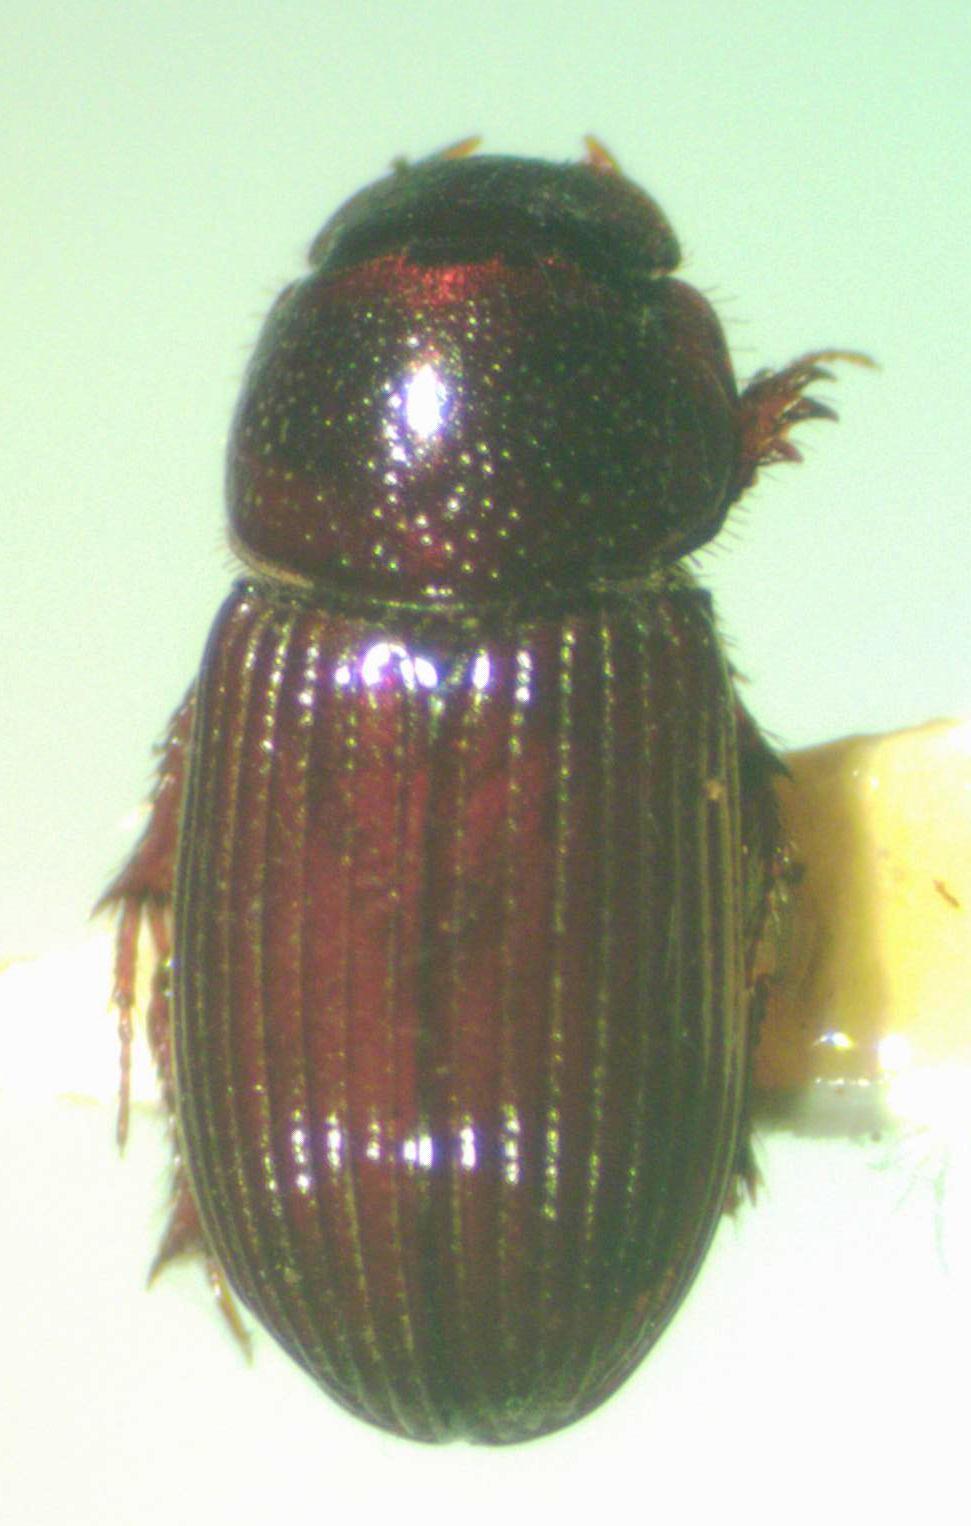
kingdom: Animalia
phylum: Arthropoda
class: Insecta
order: Coleoptera
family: Scarabaeidae
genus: Ataenius
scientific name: Ataenius languidus
